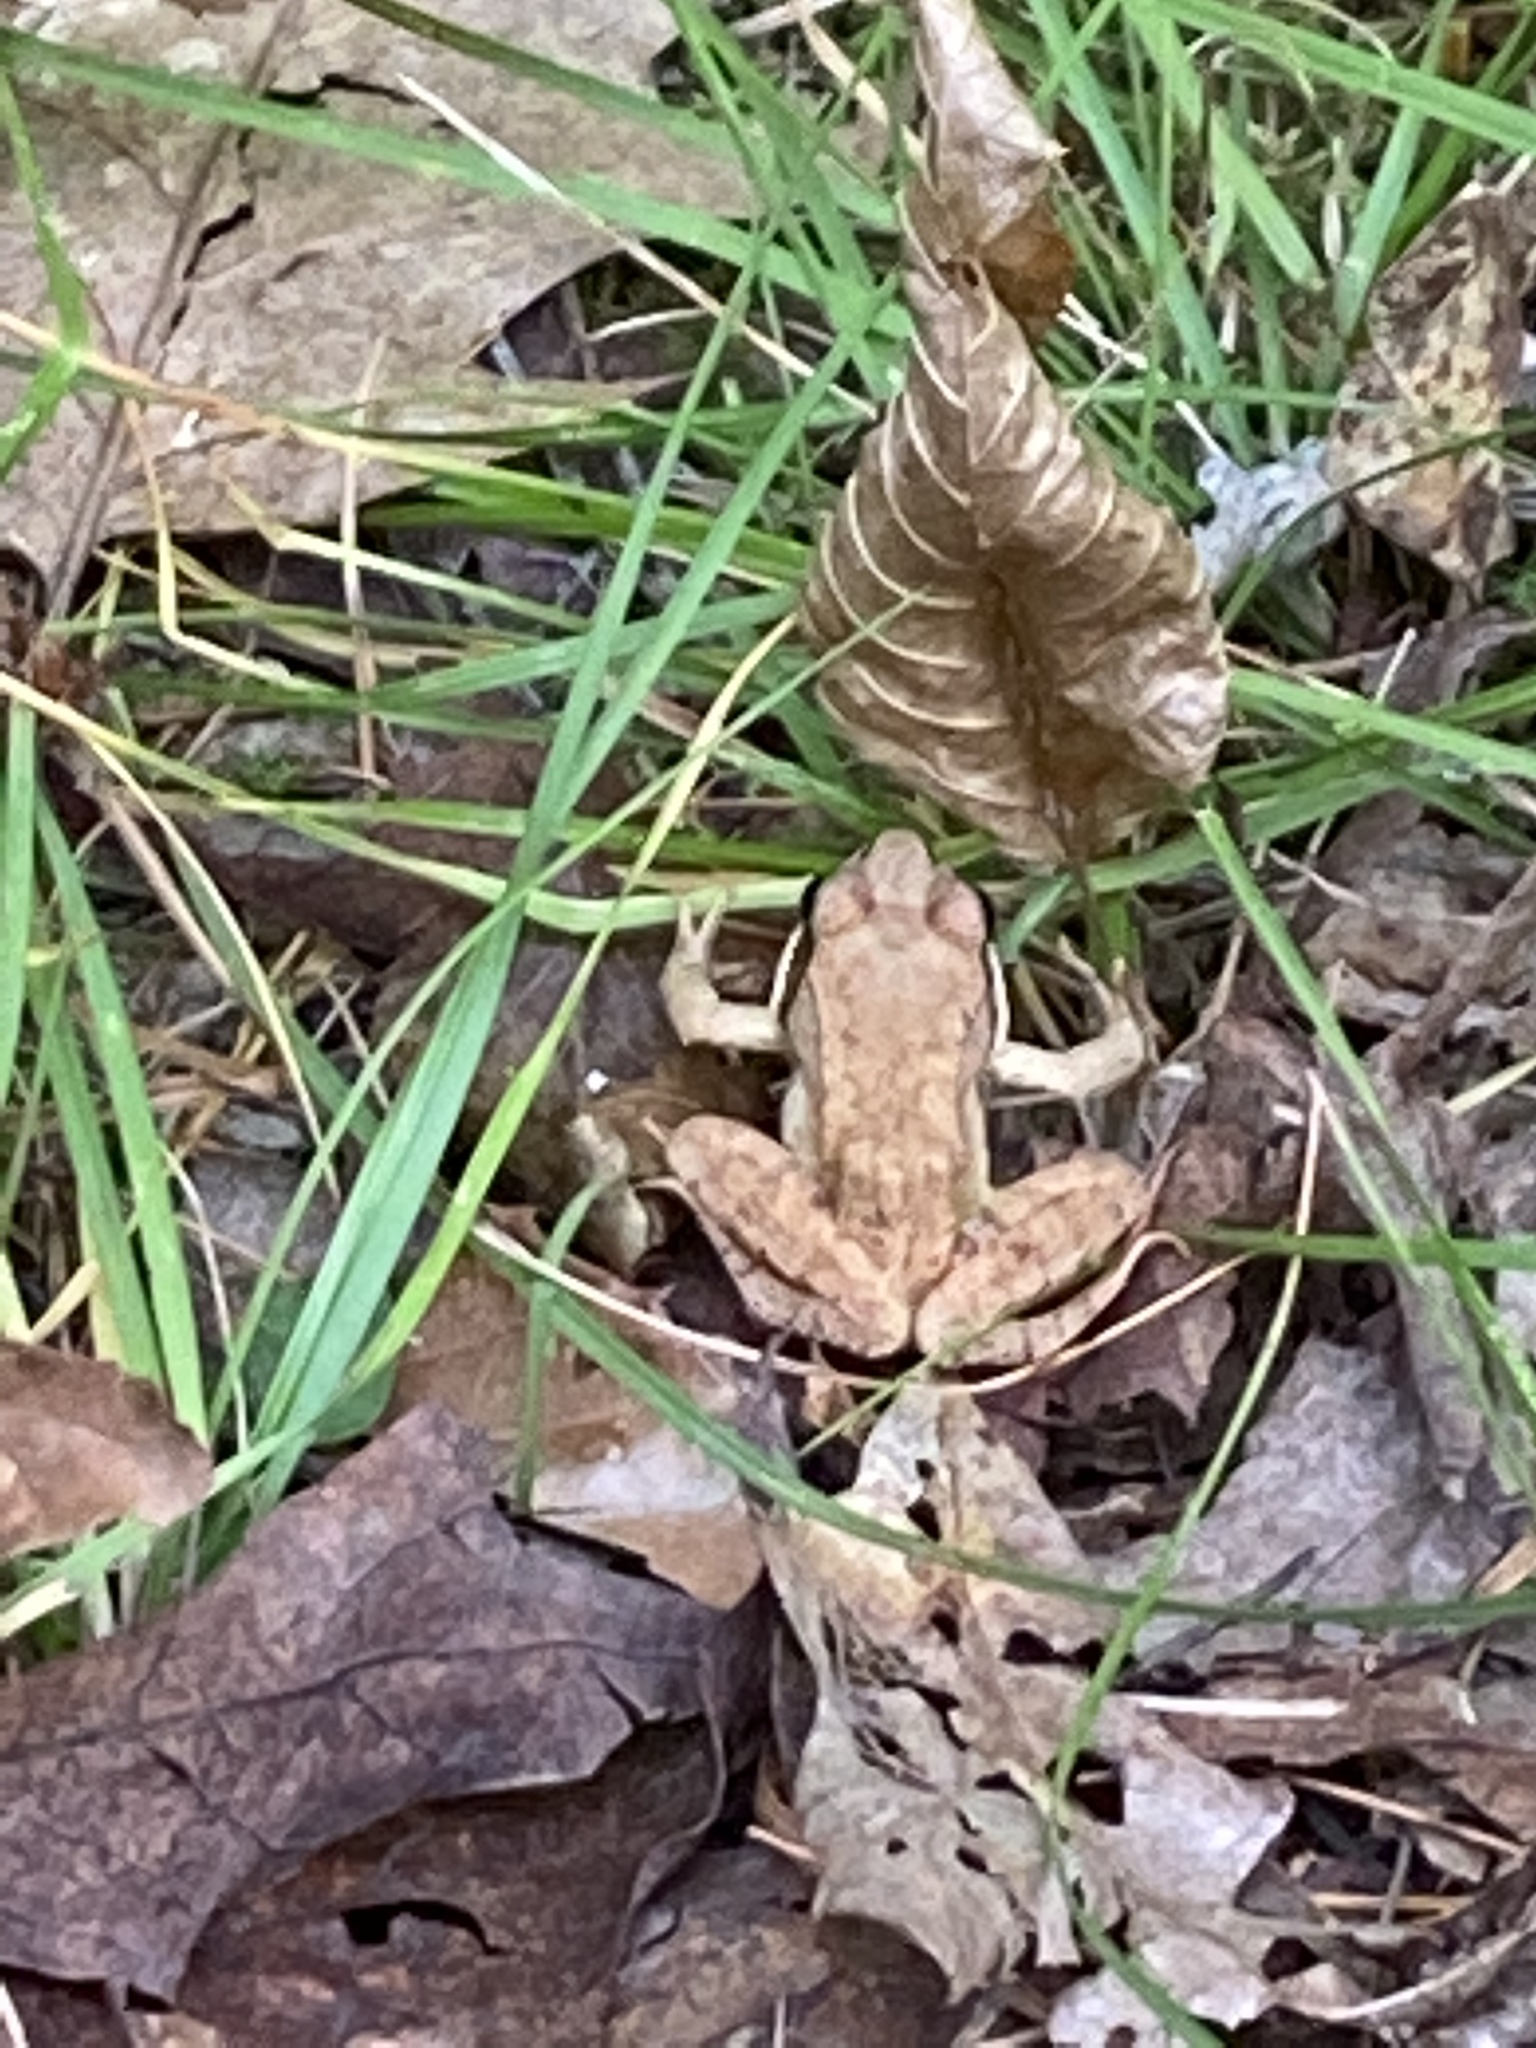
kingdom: Animalia
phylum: Chordata
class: Amphibia
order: Anura
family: Ranidae
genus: Lithobates
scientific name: Lithobates sylvaticus
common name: Wood frog
